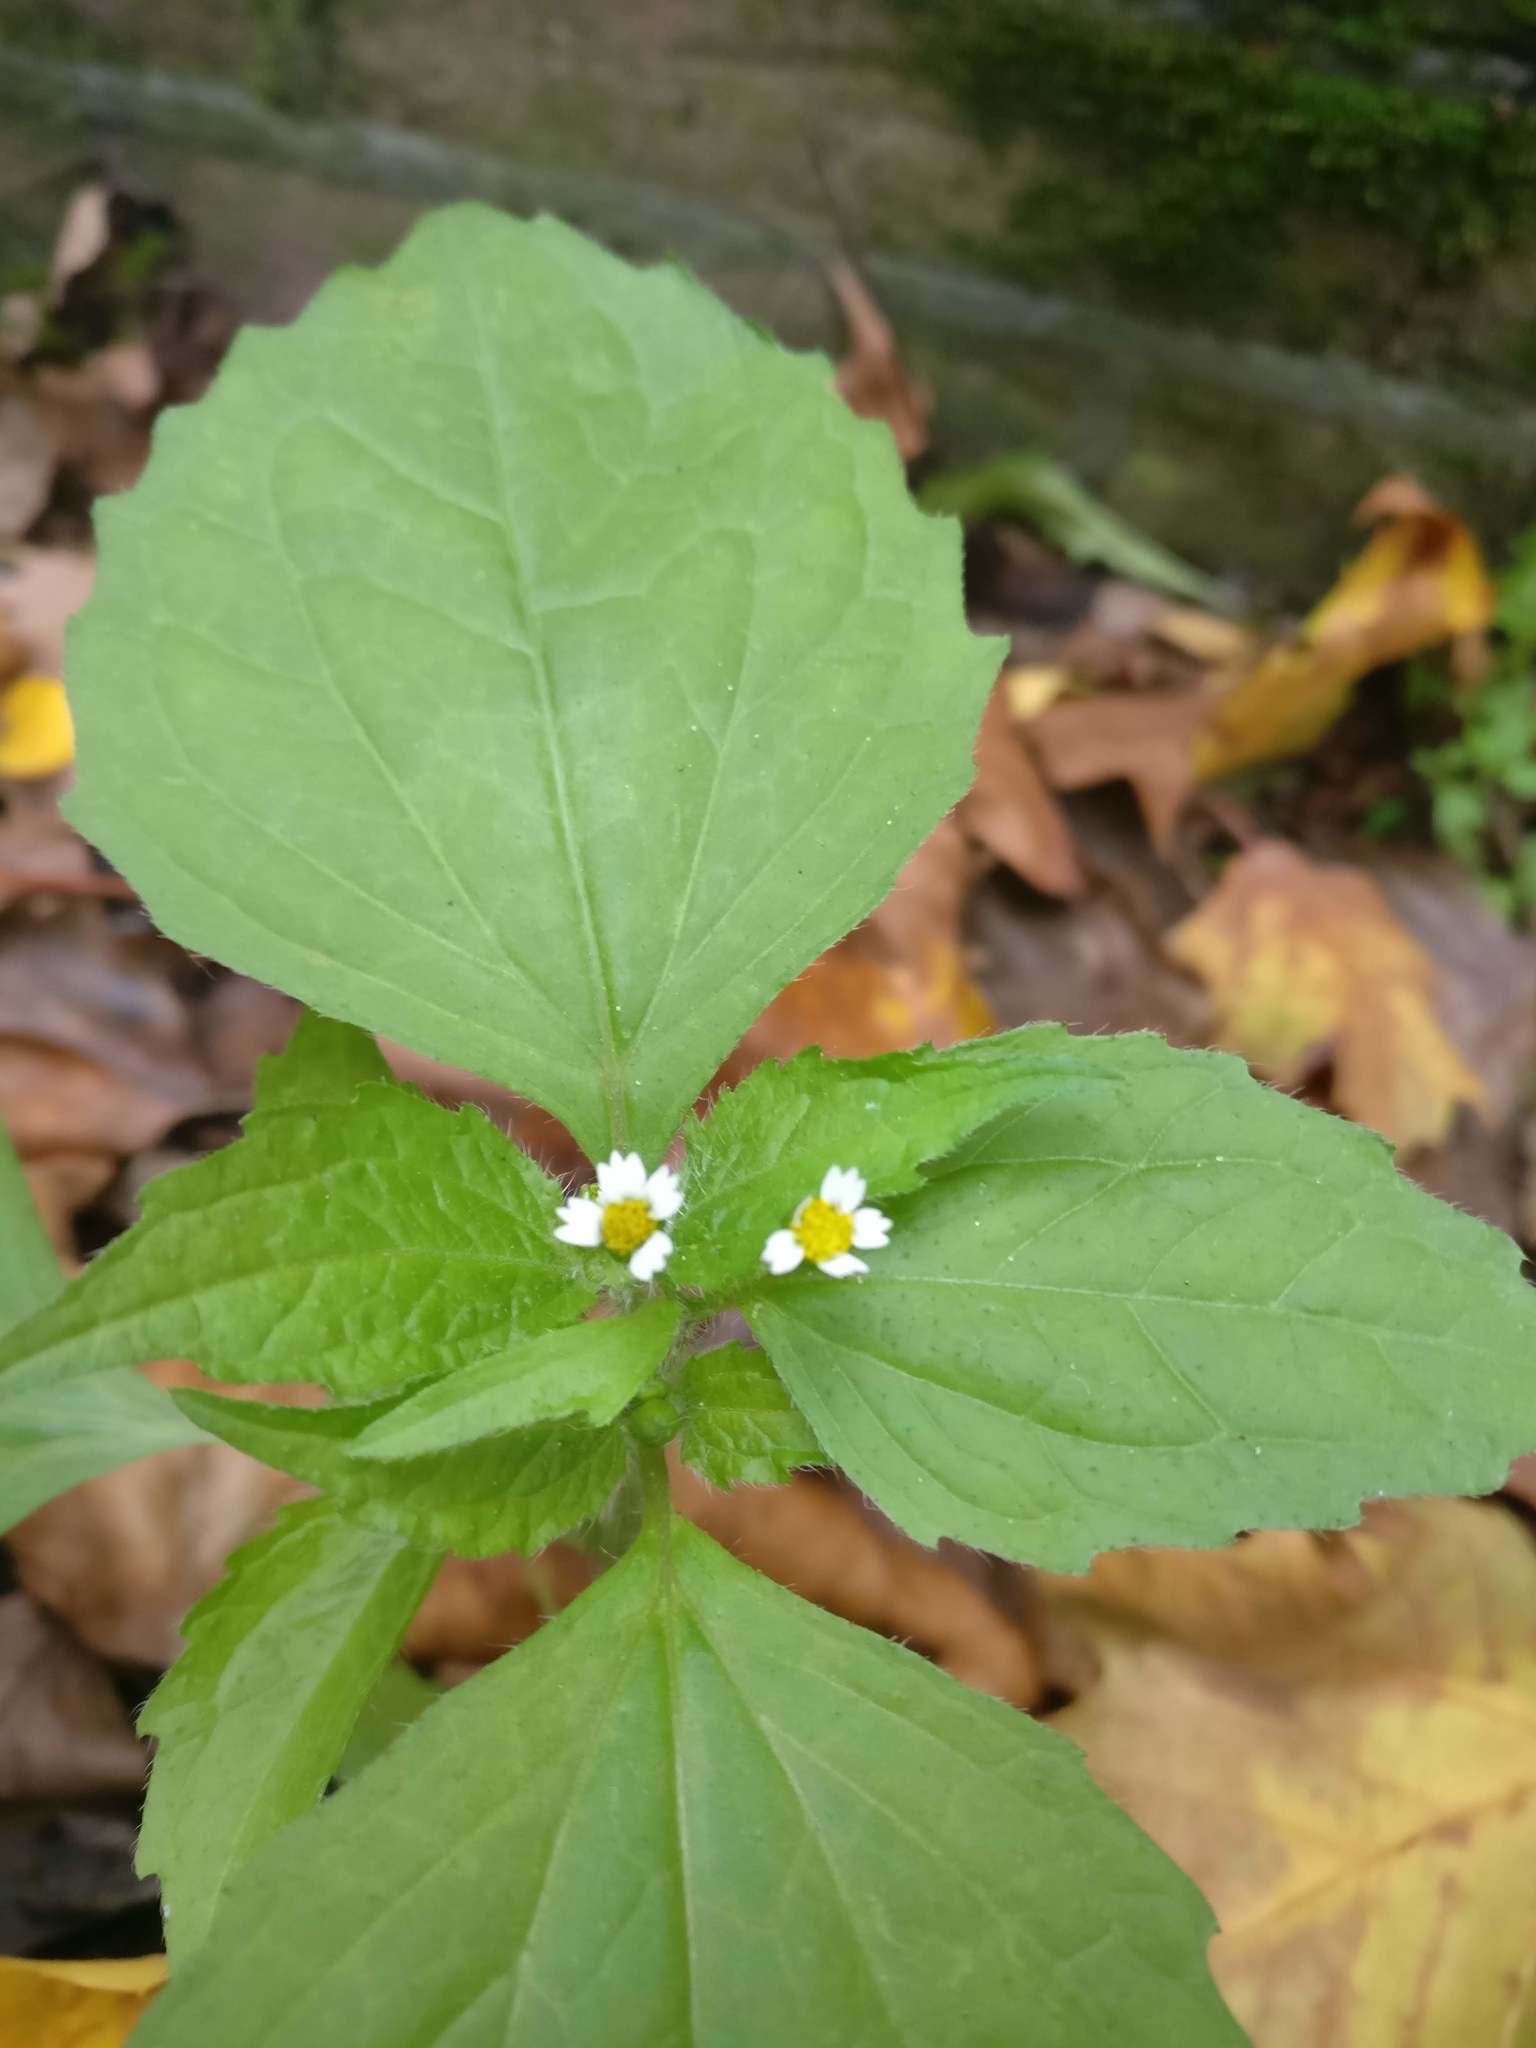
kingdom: Plantae
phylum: Tracheophyta
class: Magnoliopsida
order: Asterales
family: Asteraceae
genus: Galinsoga
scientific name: Galinsoga quadriradiata
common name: Shaggy soldier
